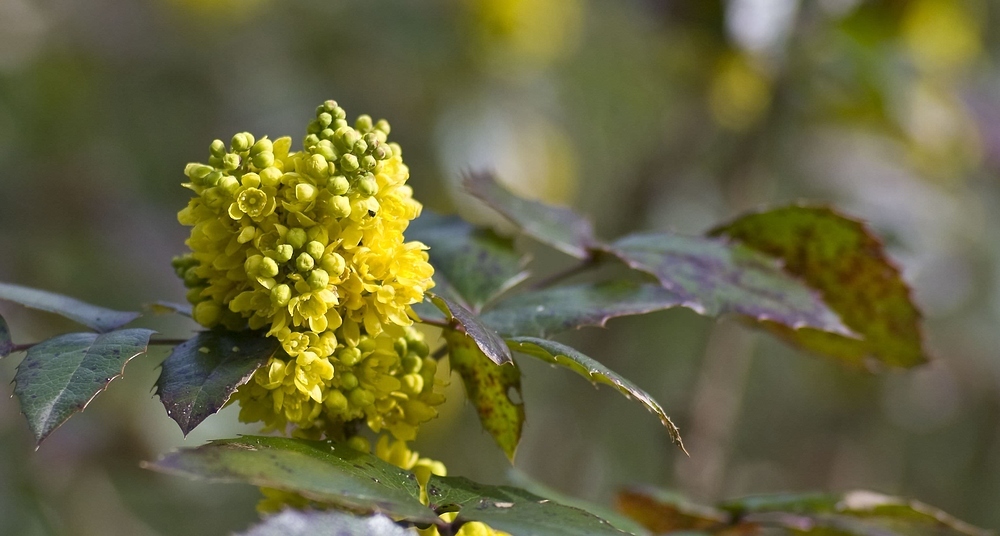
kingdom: Plantae
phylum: Tracheophyta
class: Magnoliopsida
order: Ranunculales
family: Berberidaceae
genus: Mahonia
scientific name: Mahonia aquifolium
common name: Oregon-grape
